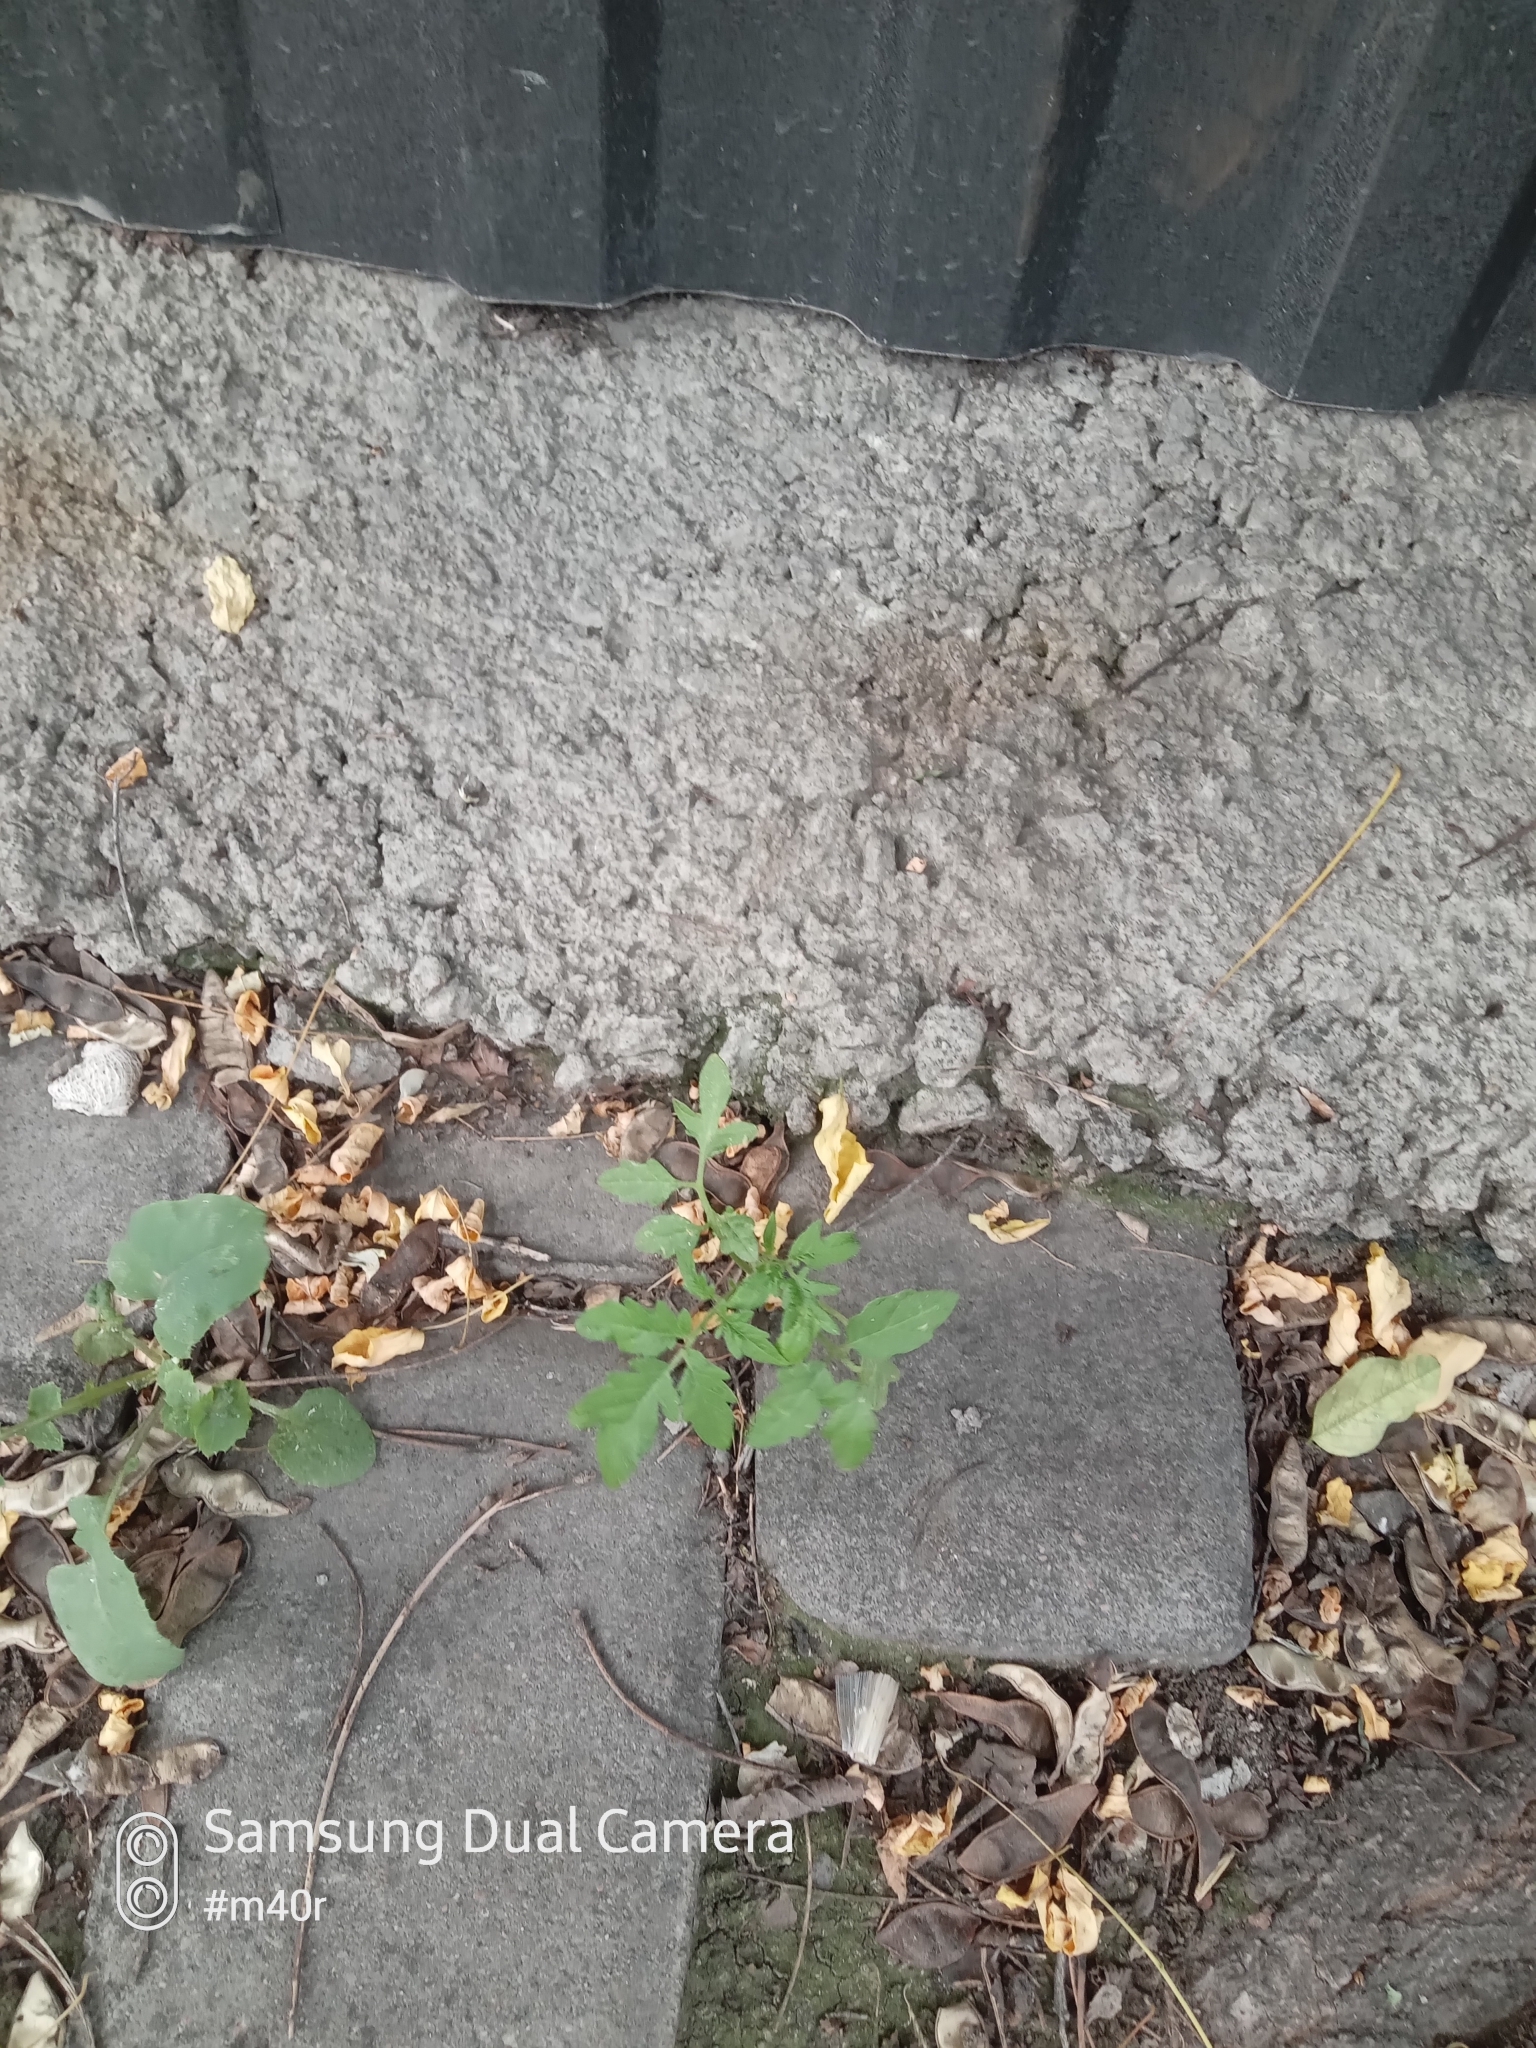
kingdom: Plantae
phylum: Tracheophyta
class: Magnoliopsida
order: Solanales
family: Solanaceae
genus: Solanum
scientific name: Solanum lycopersicum
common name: Garden tomato
